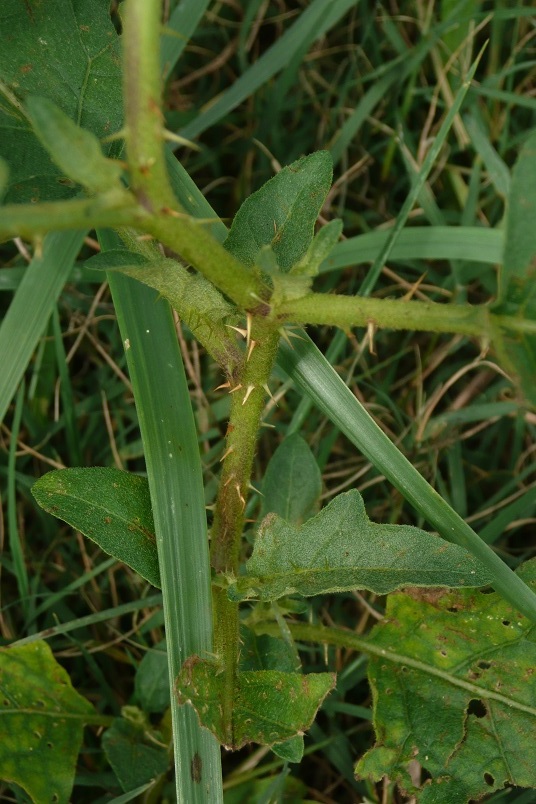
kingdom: Plantae
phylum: Tracheophyta
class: Magnoliopsida
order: Solanales
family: Solanaceae
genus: Solanum
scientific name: Solanum carolinense
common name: Horse-nettle
